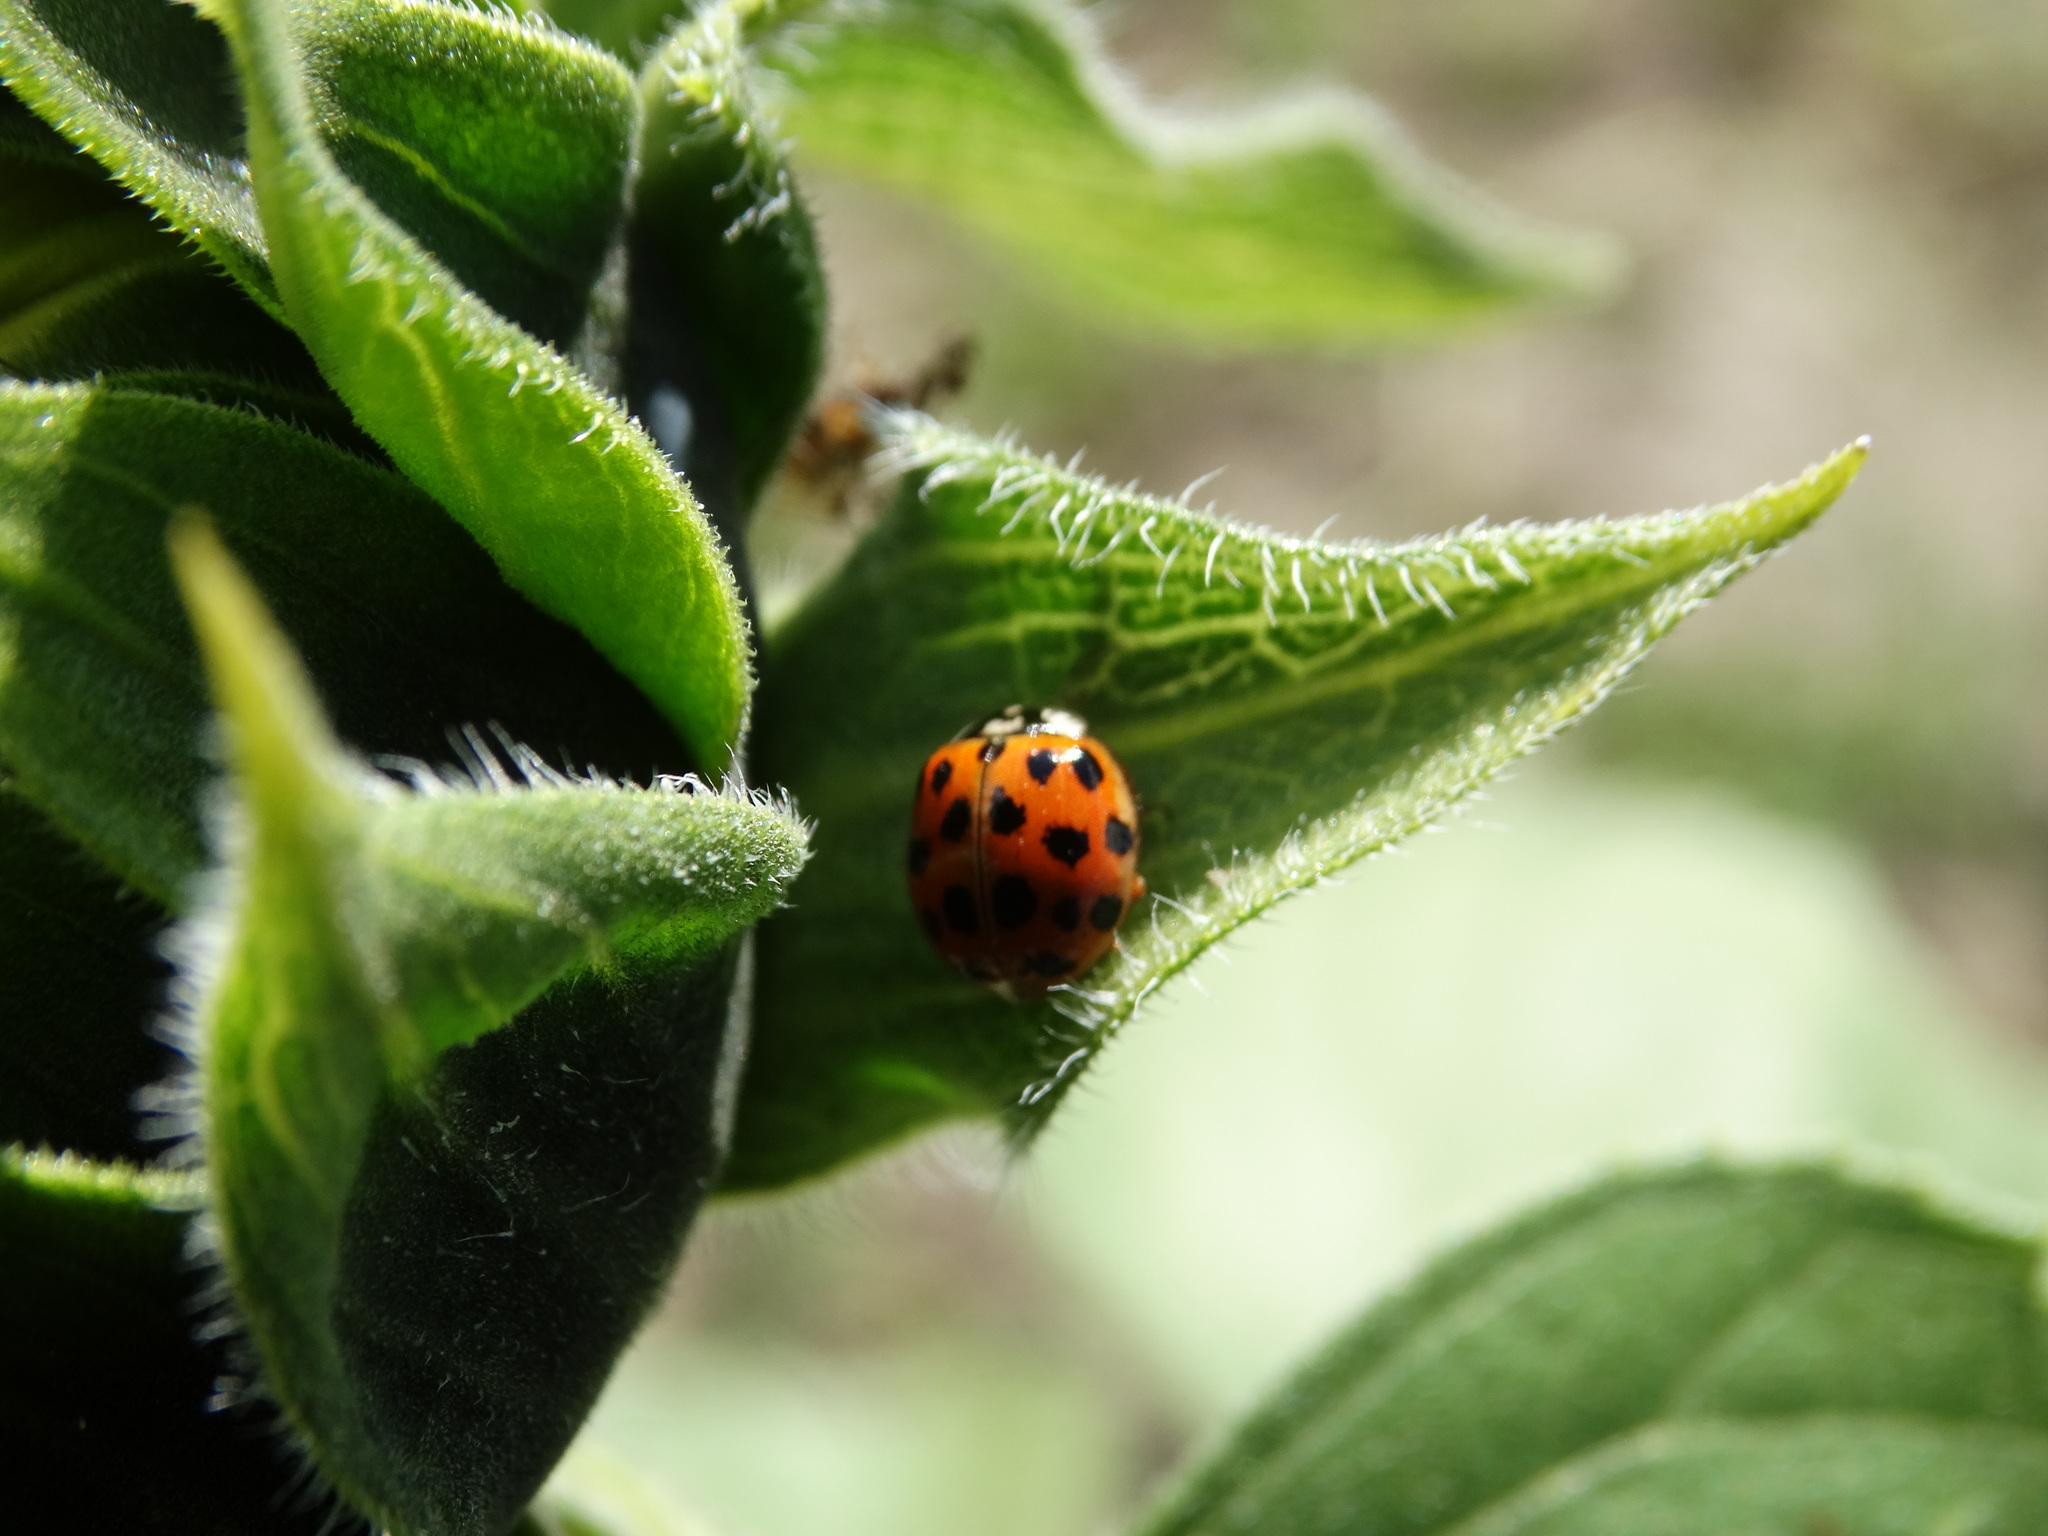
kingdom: Animalia
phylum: Arthropoda
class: Insecta
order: Coleoptera
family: Coccinellidae
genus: Harmonia
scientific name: Harmonia axyridis
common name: Harlequin ladybird
